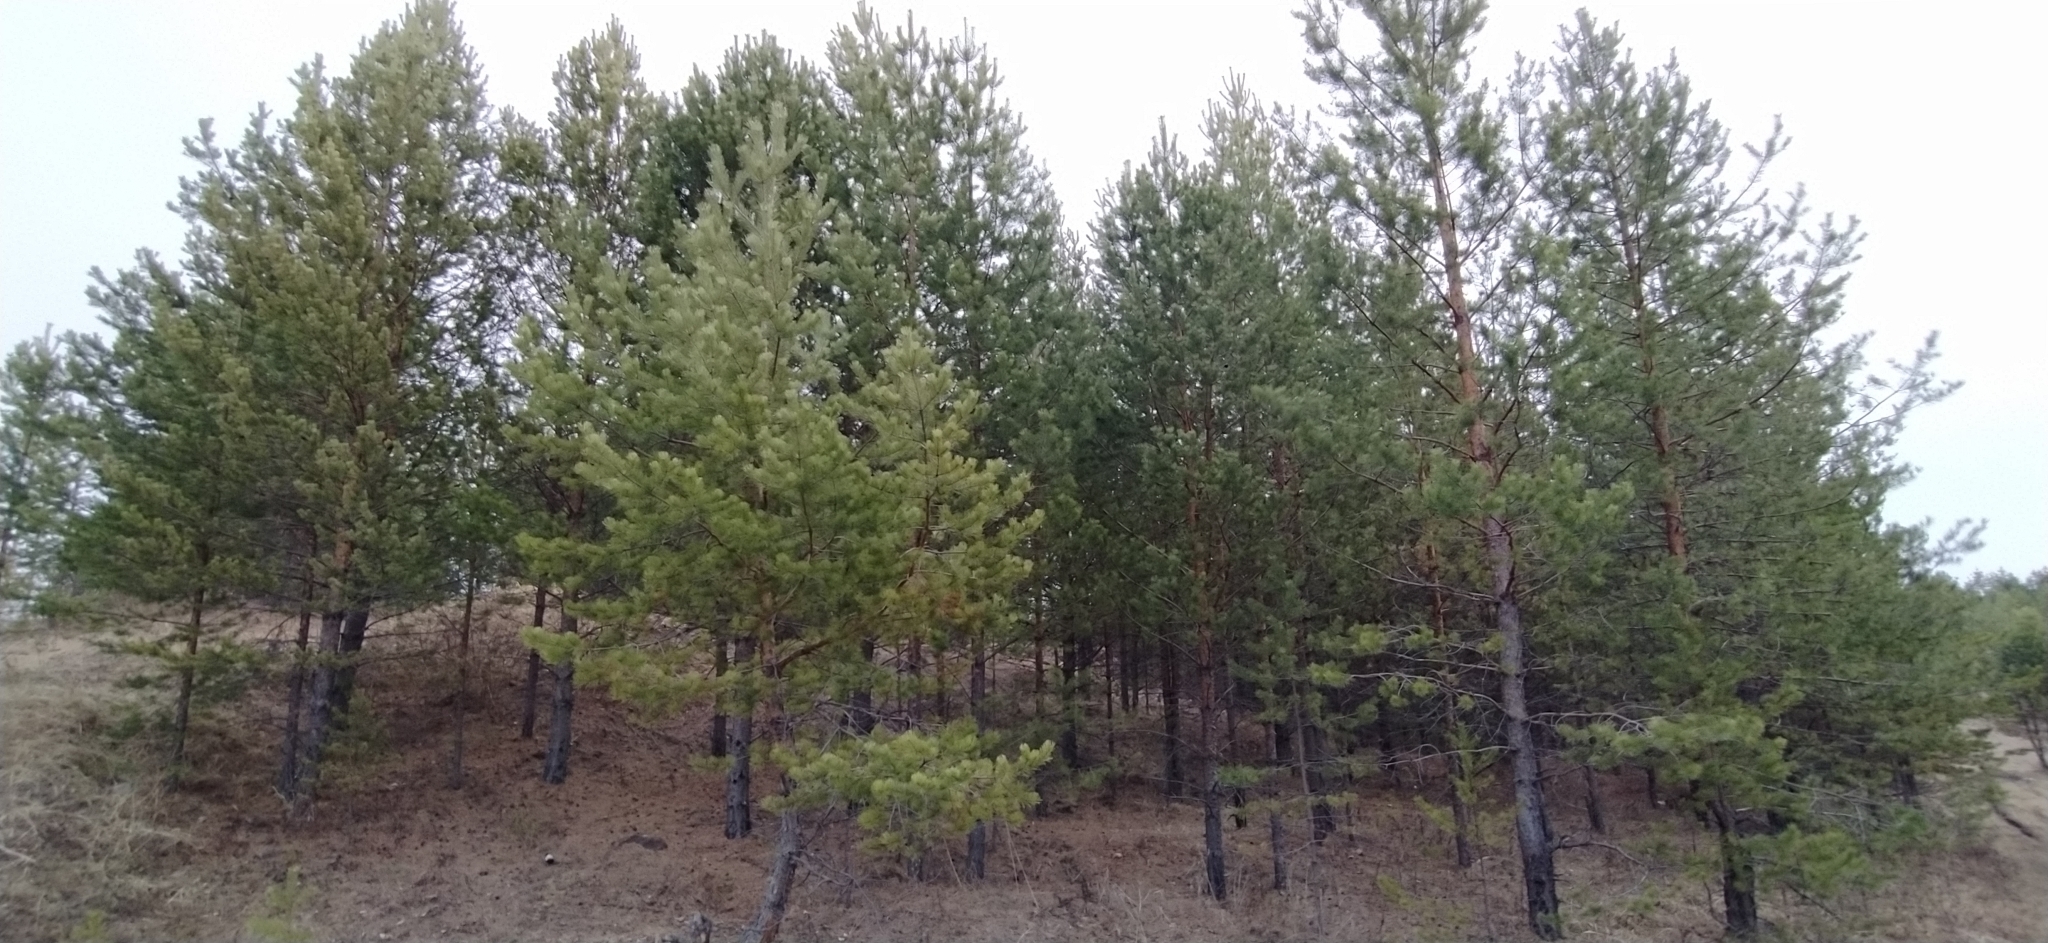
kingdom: Plantae
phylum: Tracheophyta
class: Pinopsida
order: Pinales
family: Pinaceae
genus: Pinus
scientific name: Pinus sylvestris
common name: Scots pine
